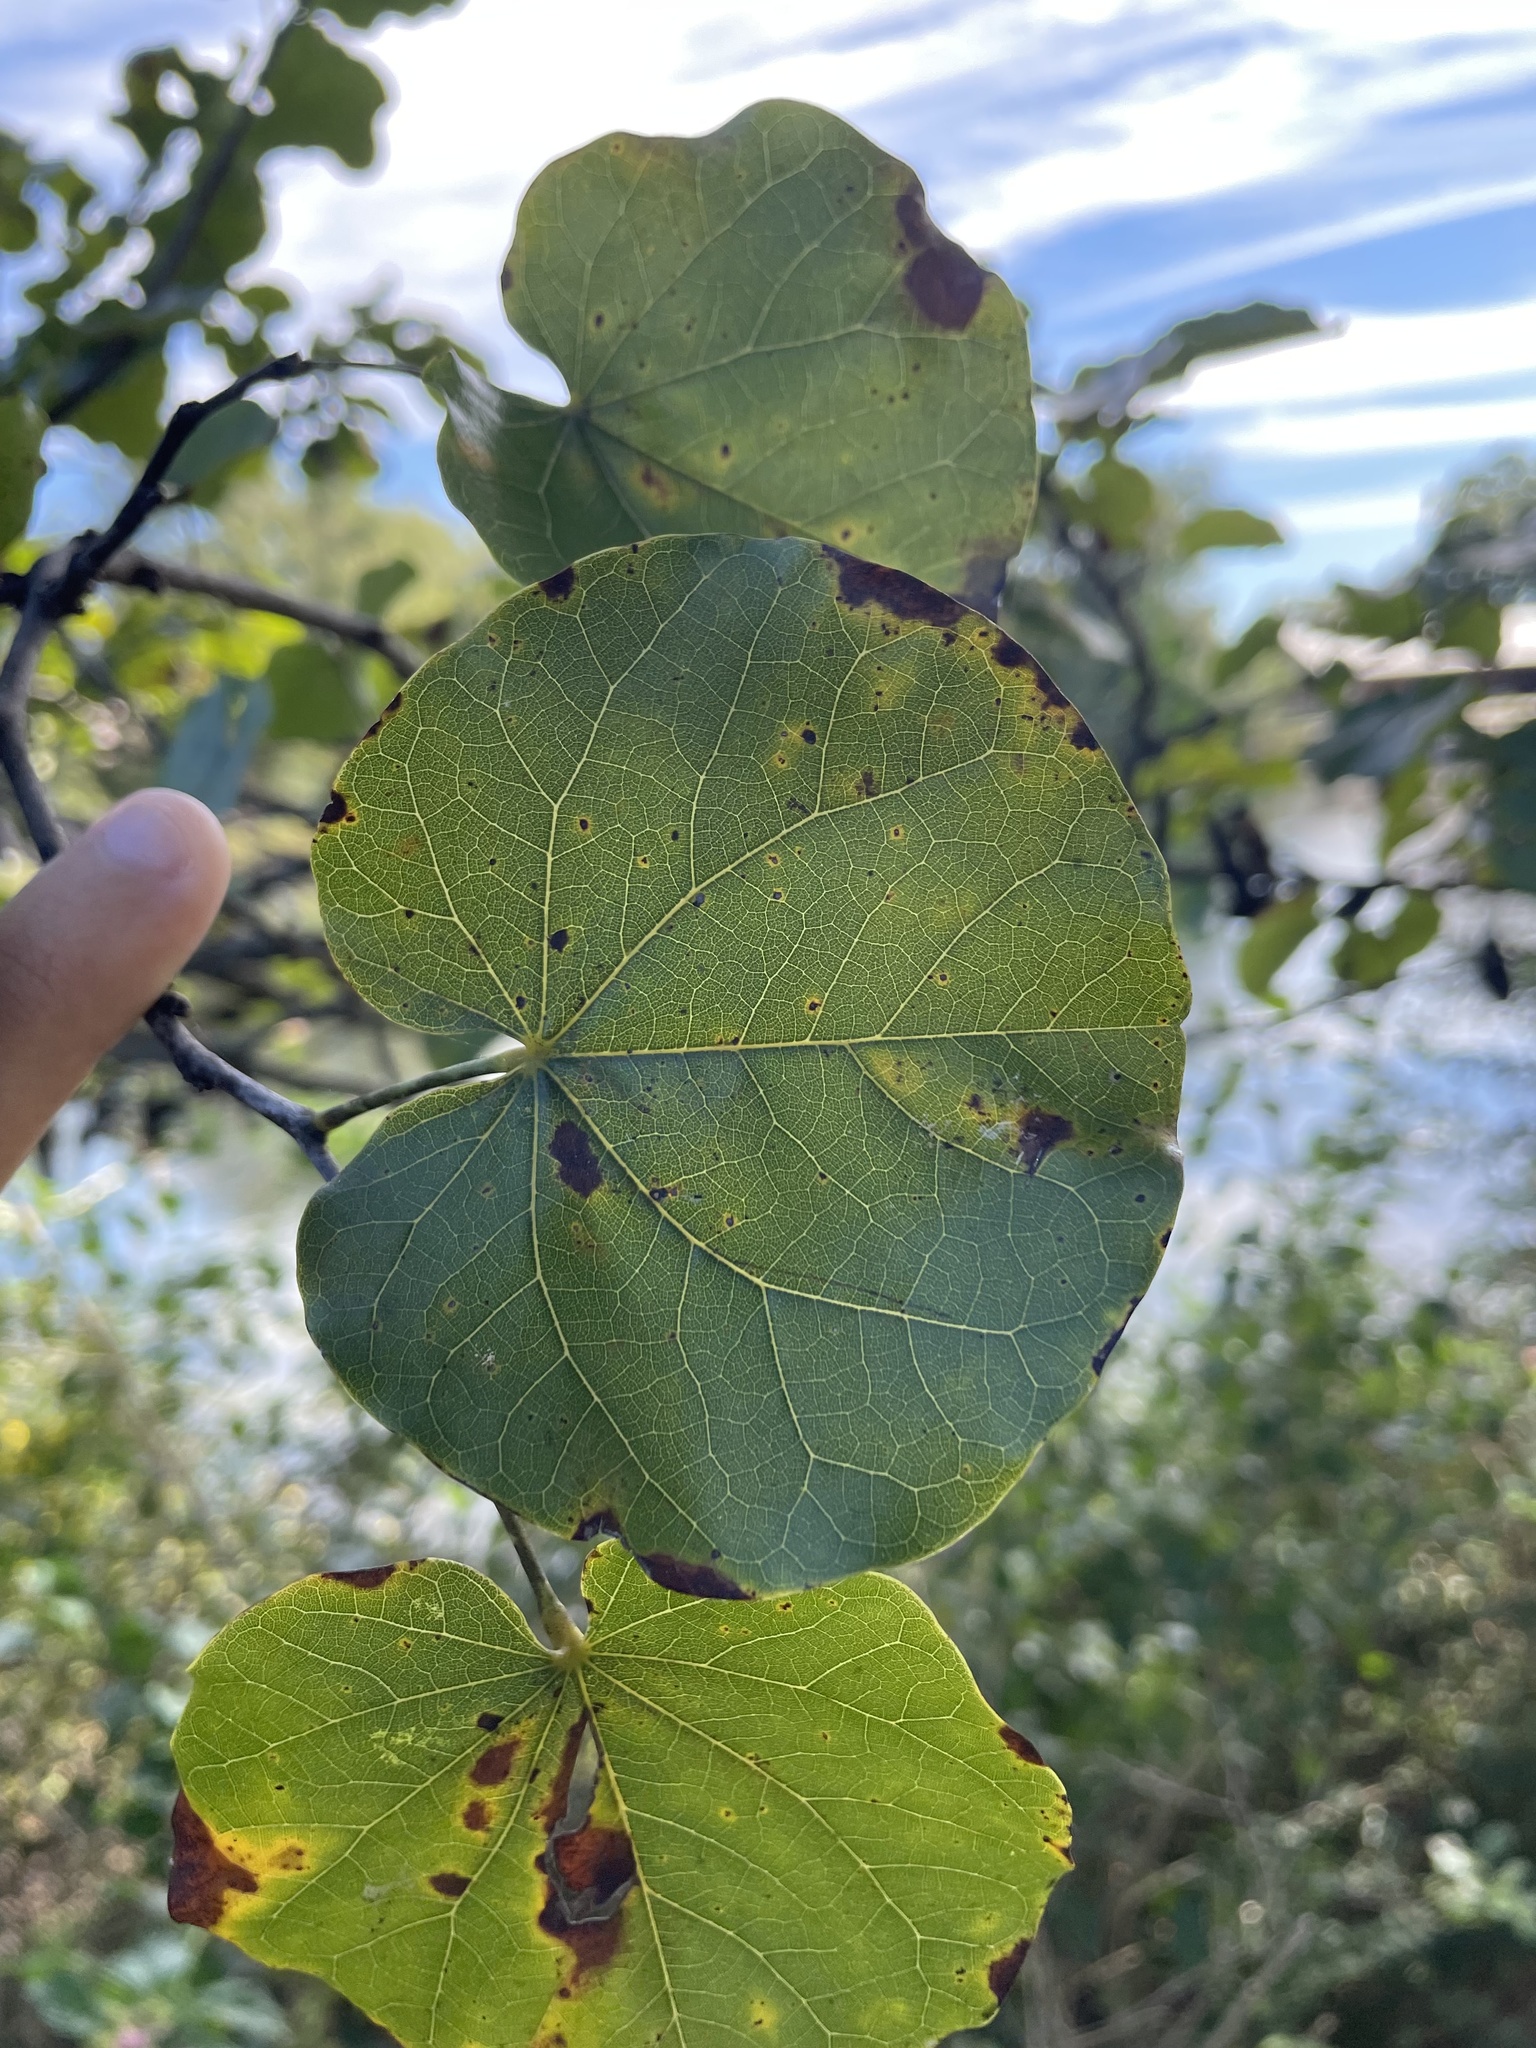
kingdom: Plantae
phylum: Tracheophyta
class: Magnoliopsida
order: Fabales
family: Fabaceae
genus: Cercis
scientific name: Cercis canadensis
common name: Eastern redbud
